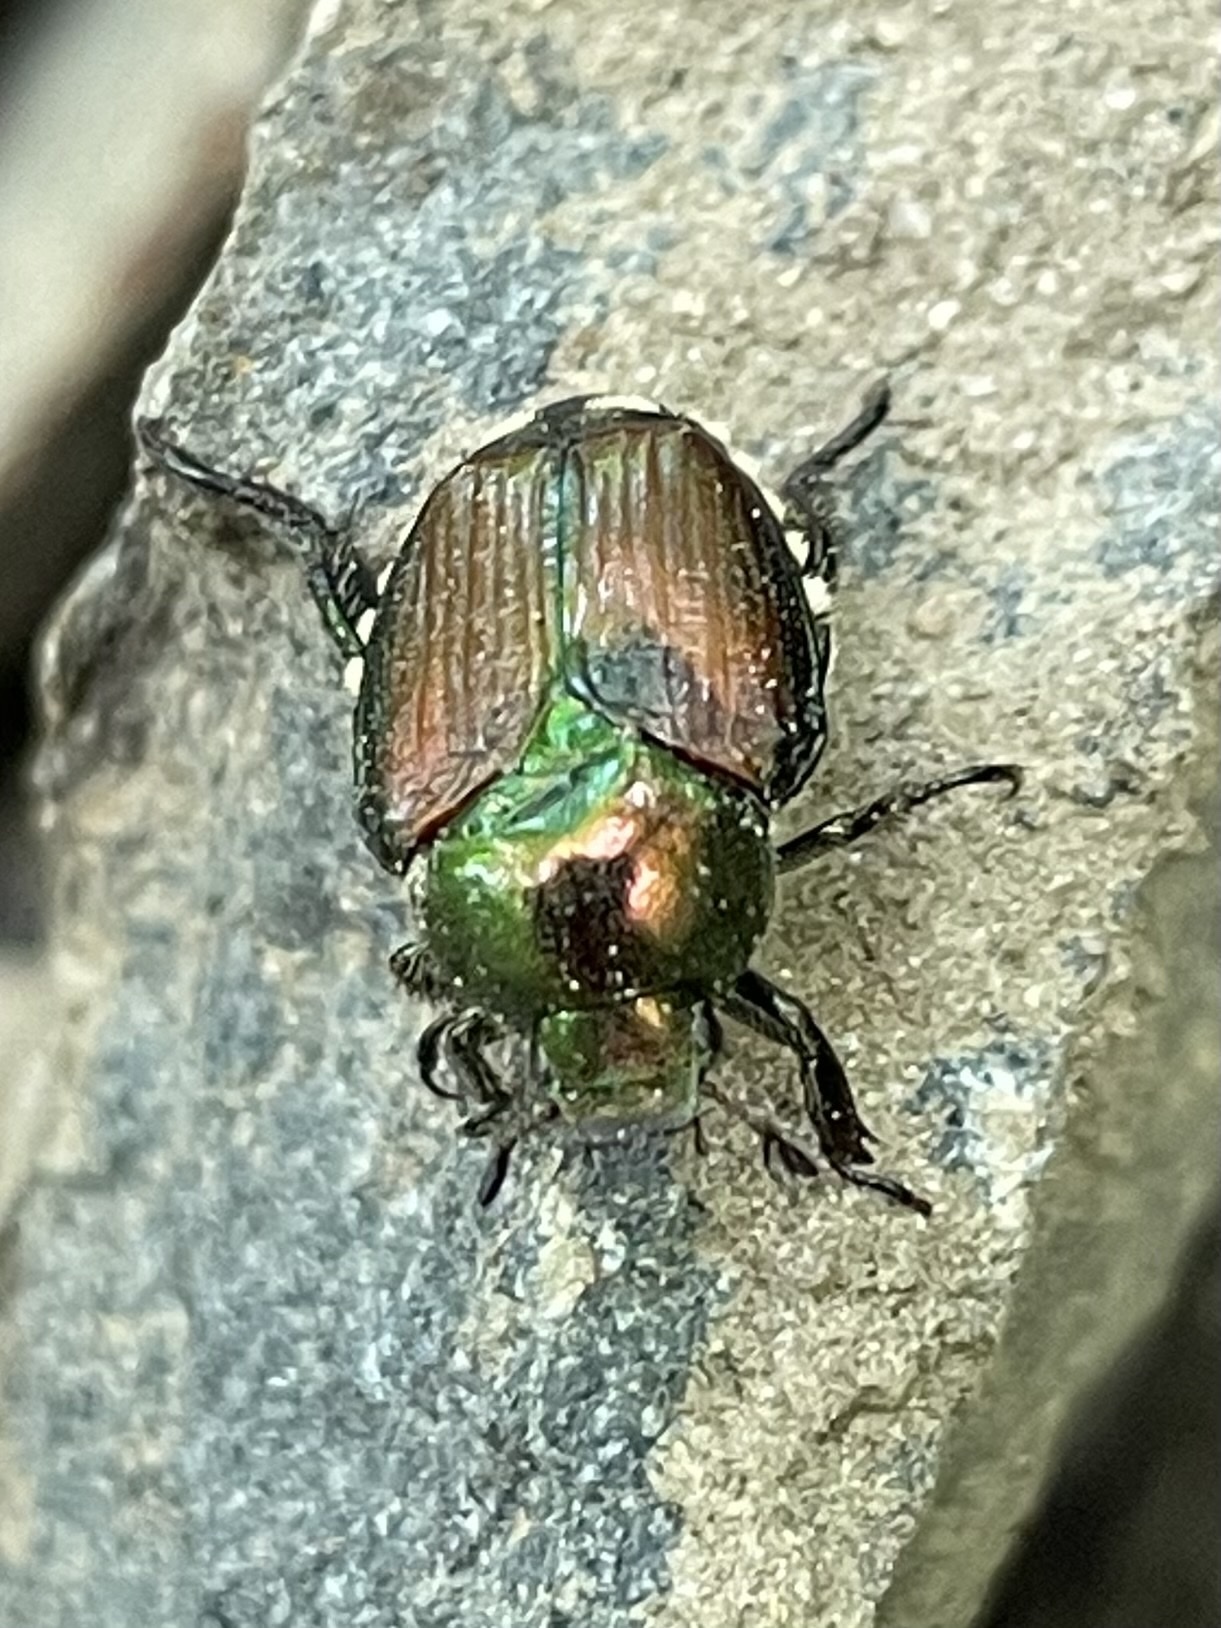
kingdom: Animalia
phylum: Arthropoda
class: Insecta
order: Coleoptera
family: Scarabaeidae
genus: Popillia
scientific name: Popillia japonica
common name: Japanese beetle
